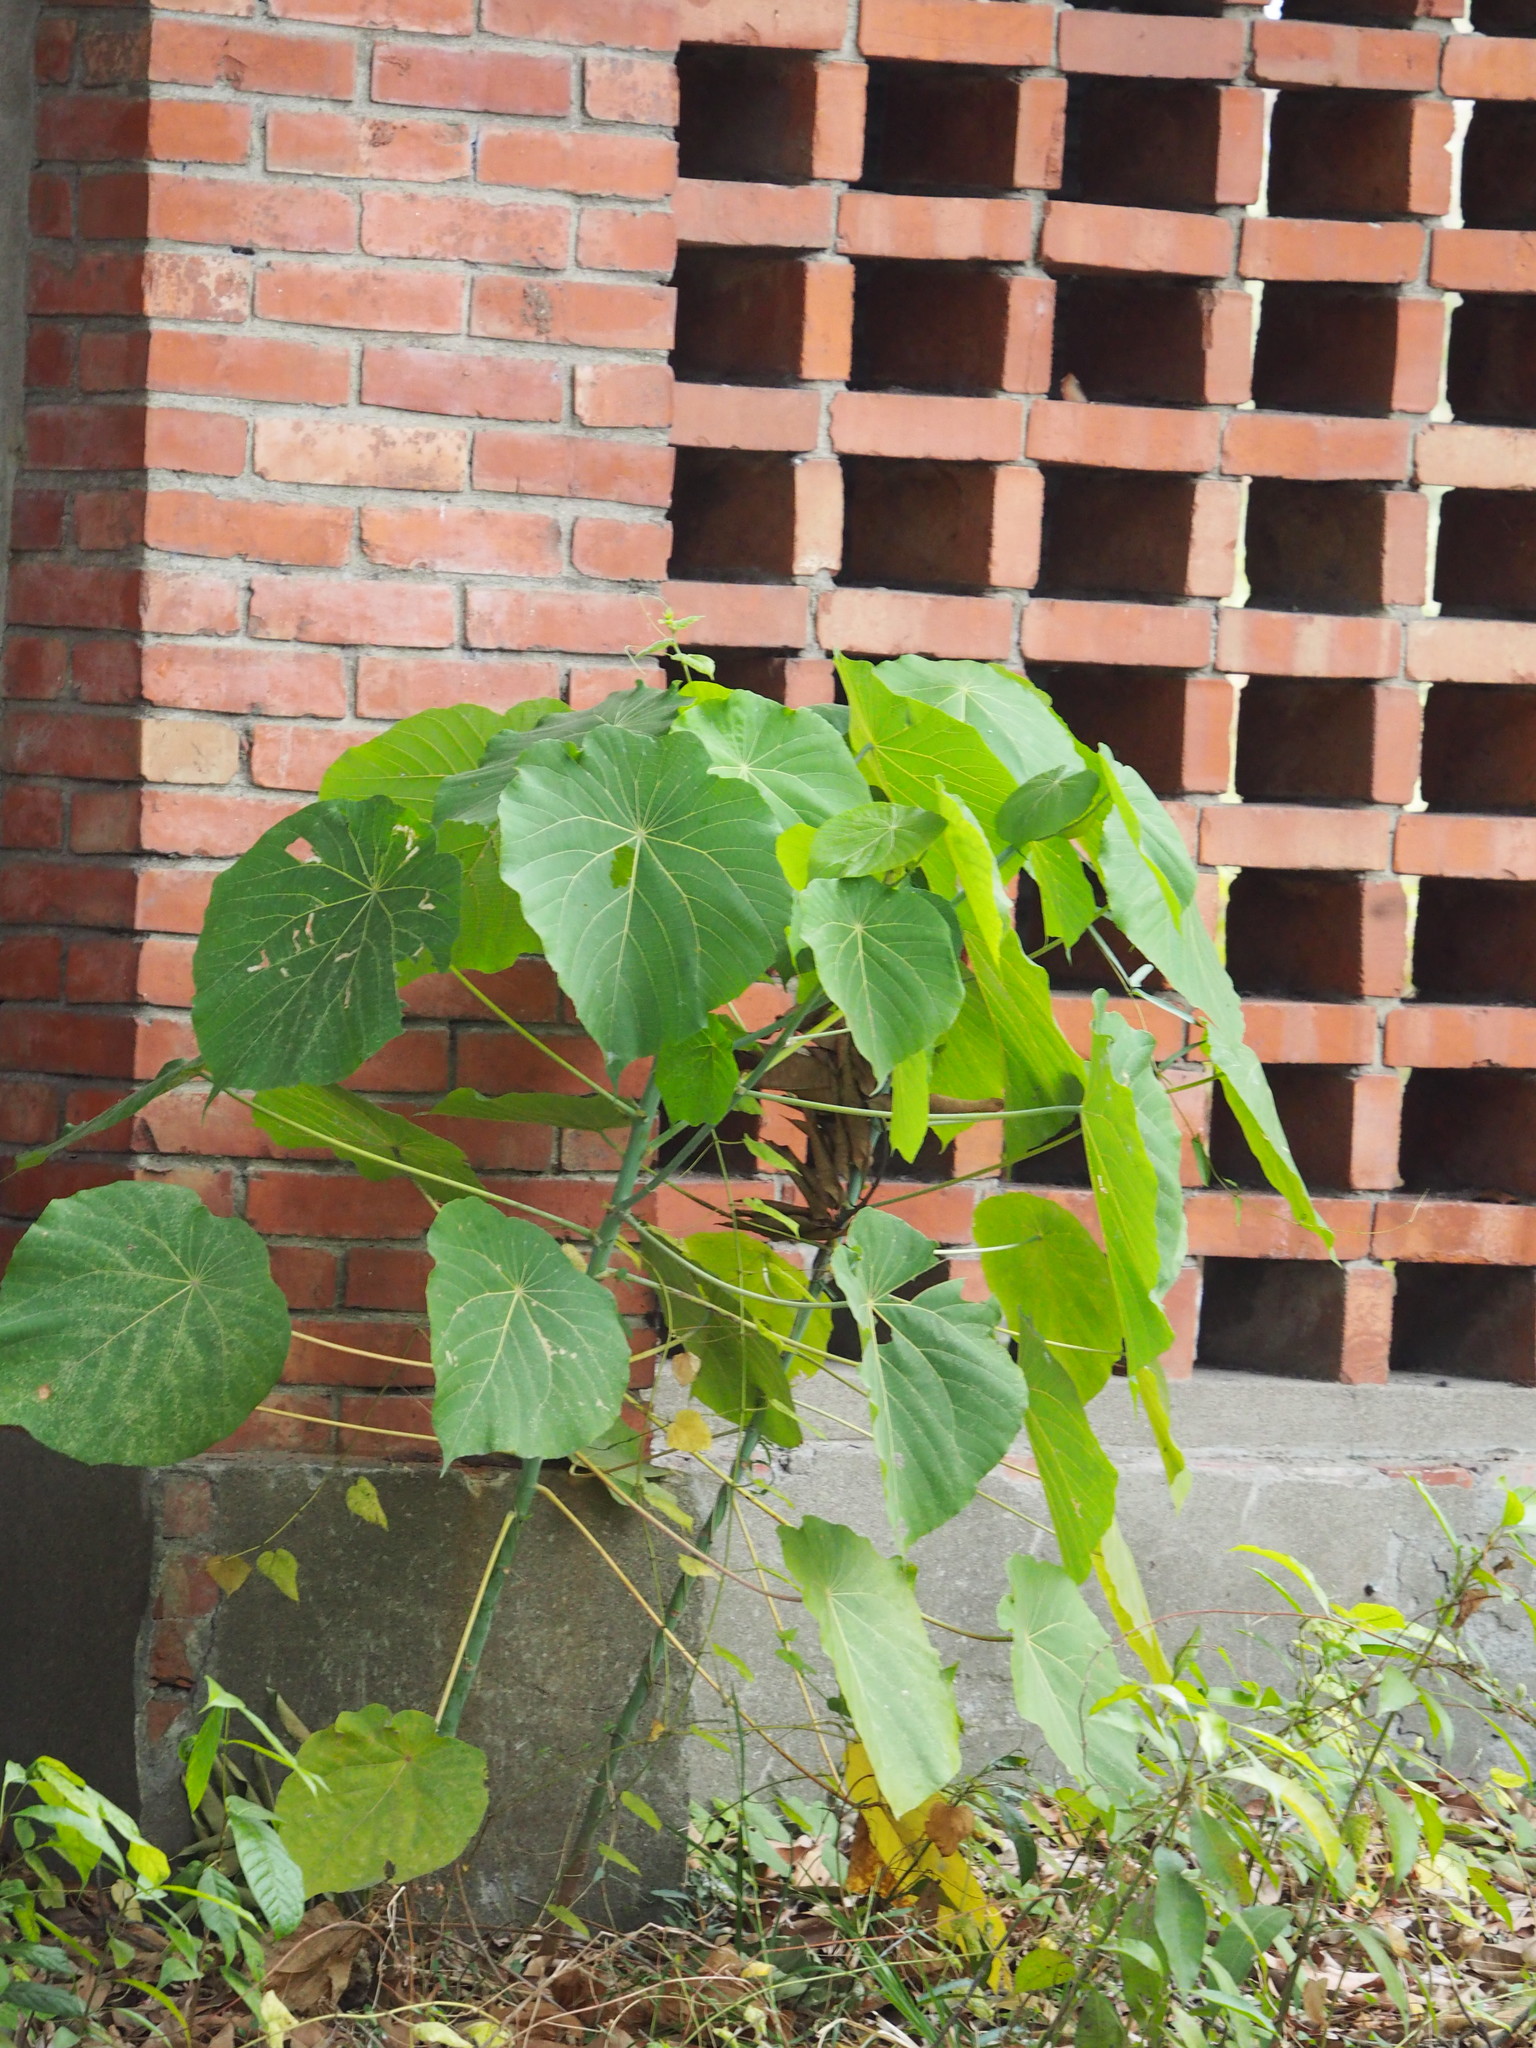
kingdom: Plantae
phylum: Tracheophyta
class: Magnoliopsida
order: Malpighiales
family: Euphorbiaceae
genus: Macaranga
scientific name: Macaranga tanarius
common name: Parasol leaf tree
